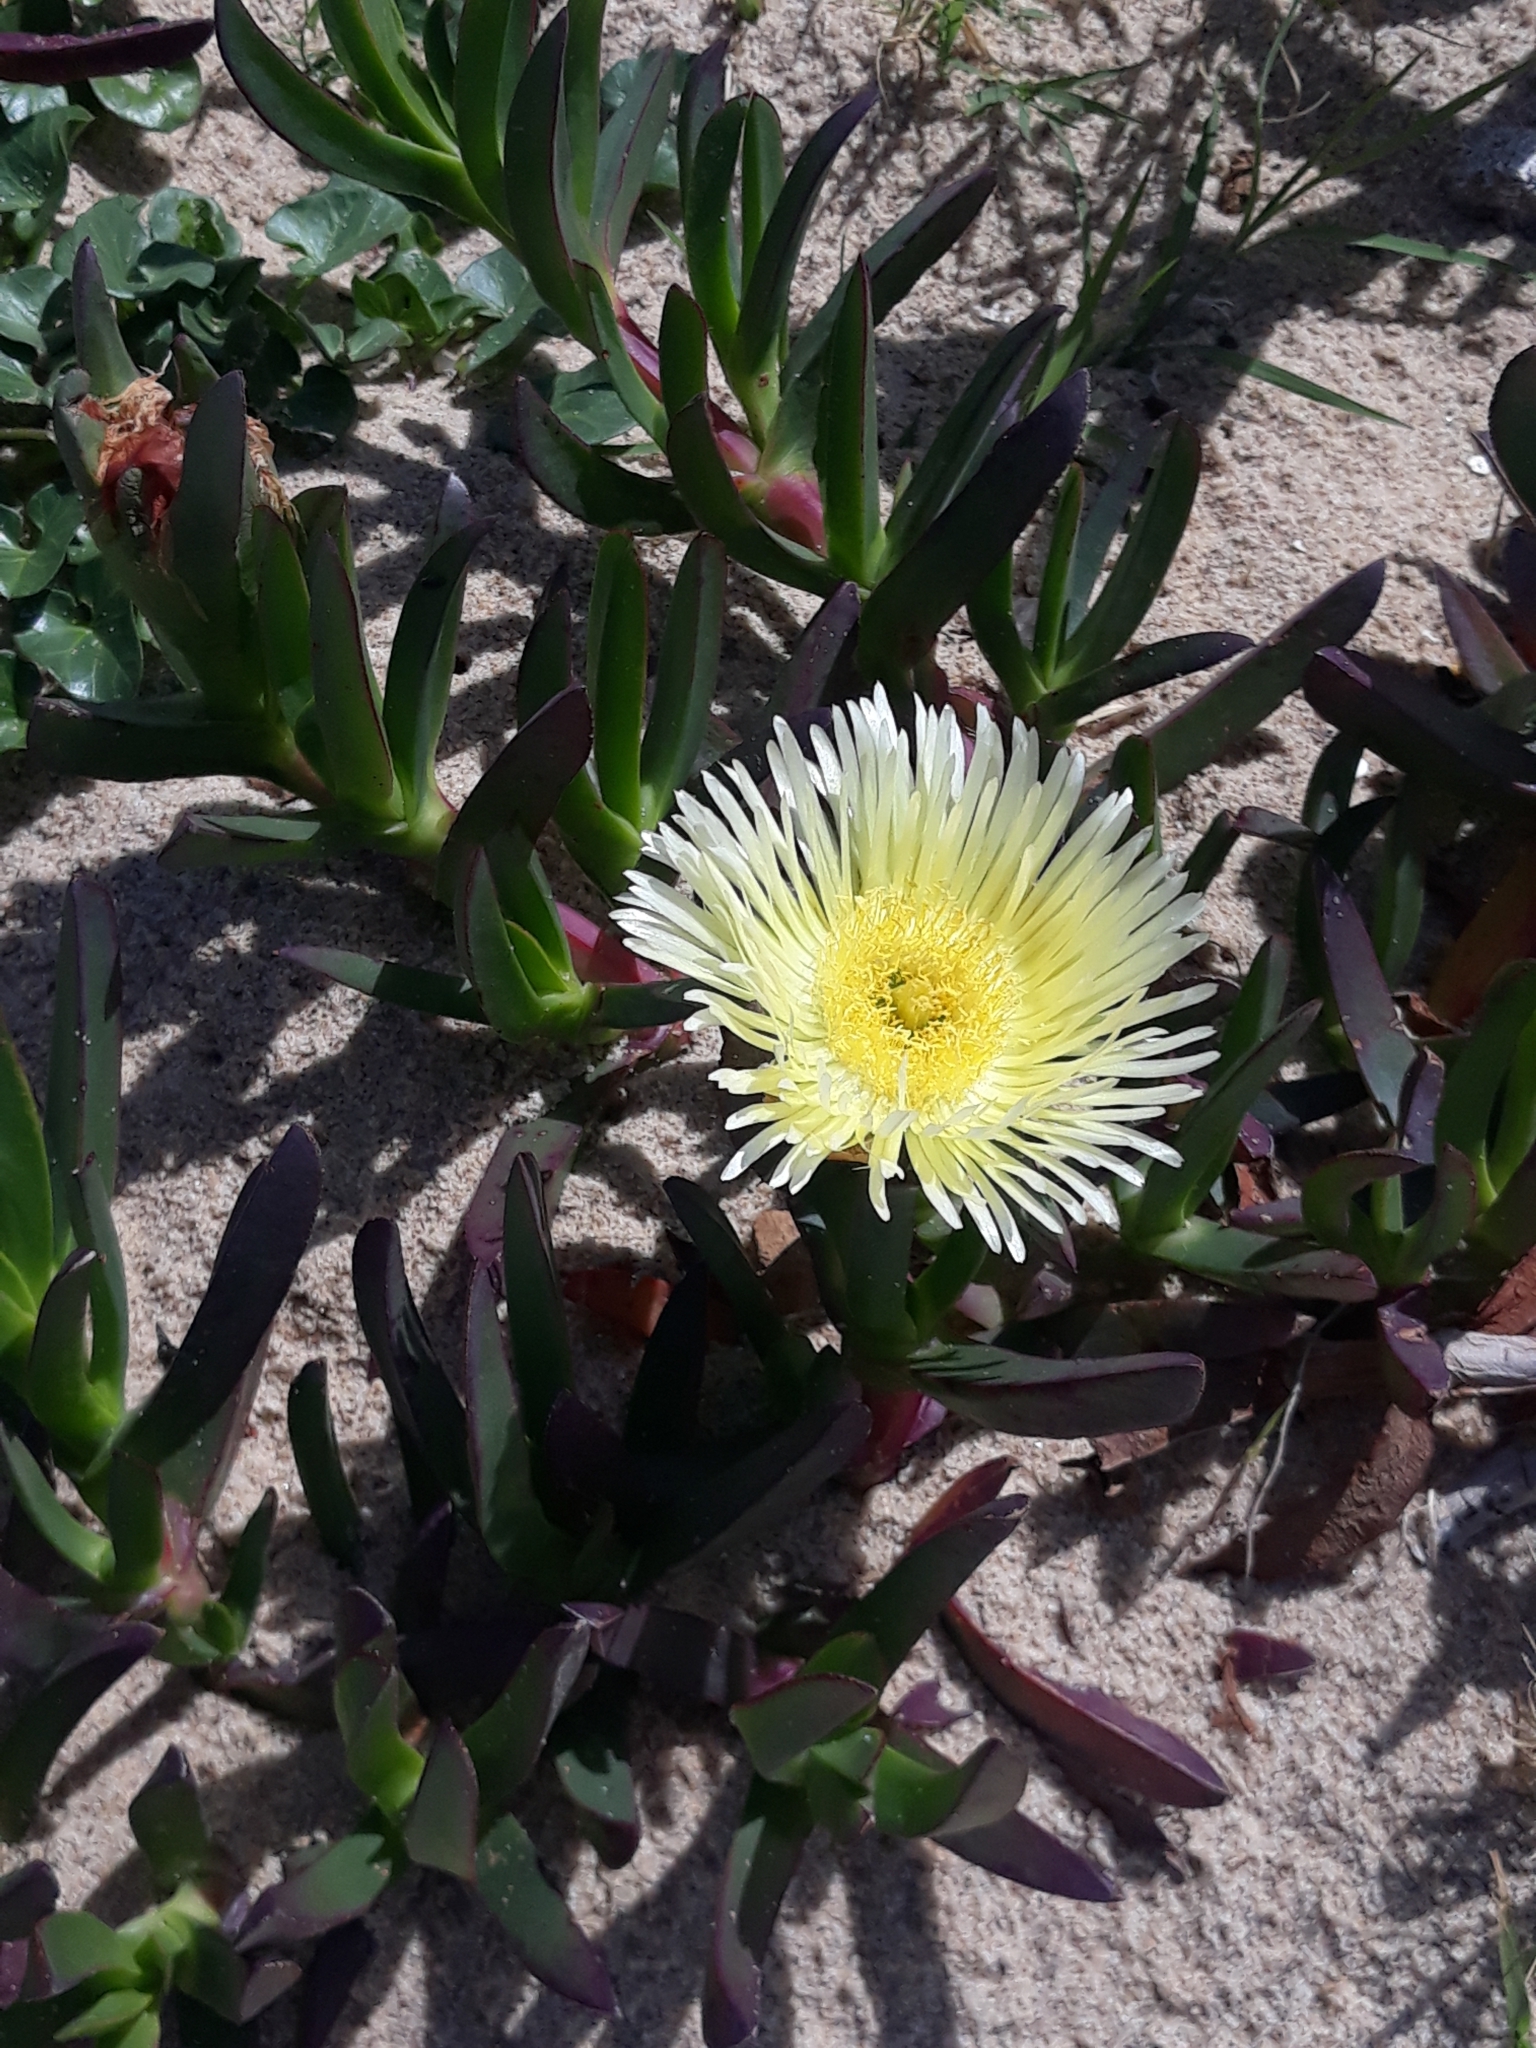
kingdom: Plantae
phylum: Tracheophyta
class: Magnoliopsida
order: Caryophyllales
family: Aizoaceae
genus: Carpobrotus
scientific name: Carpobrotus edulis
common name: Hottentot-fig
